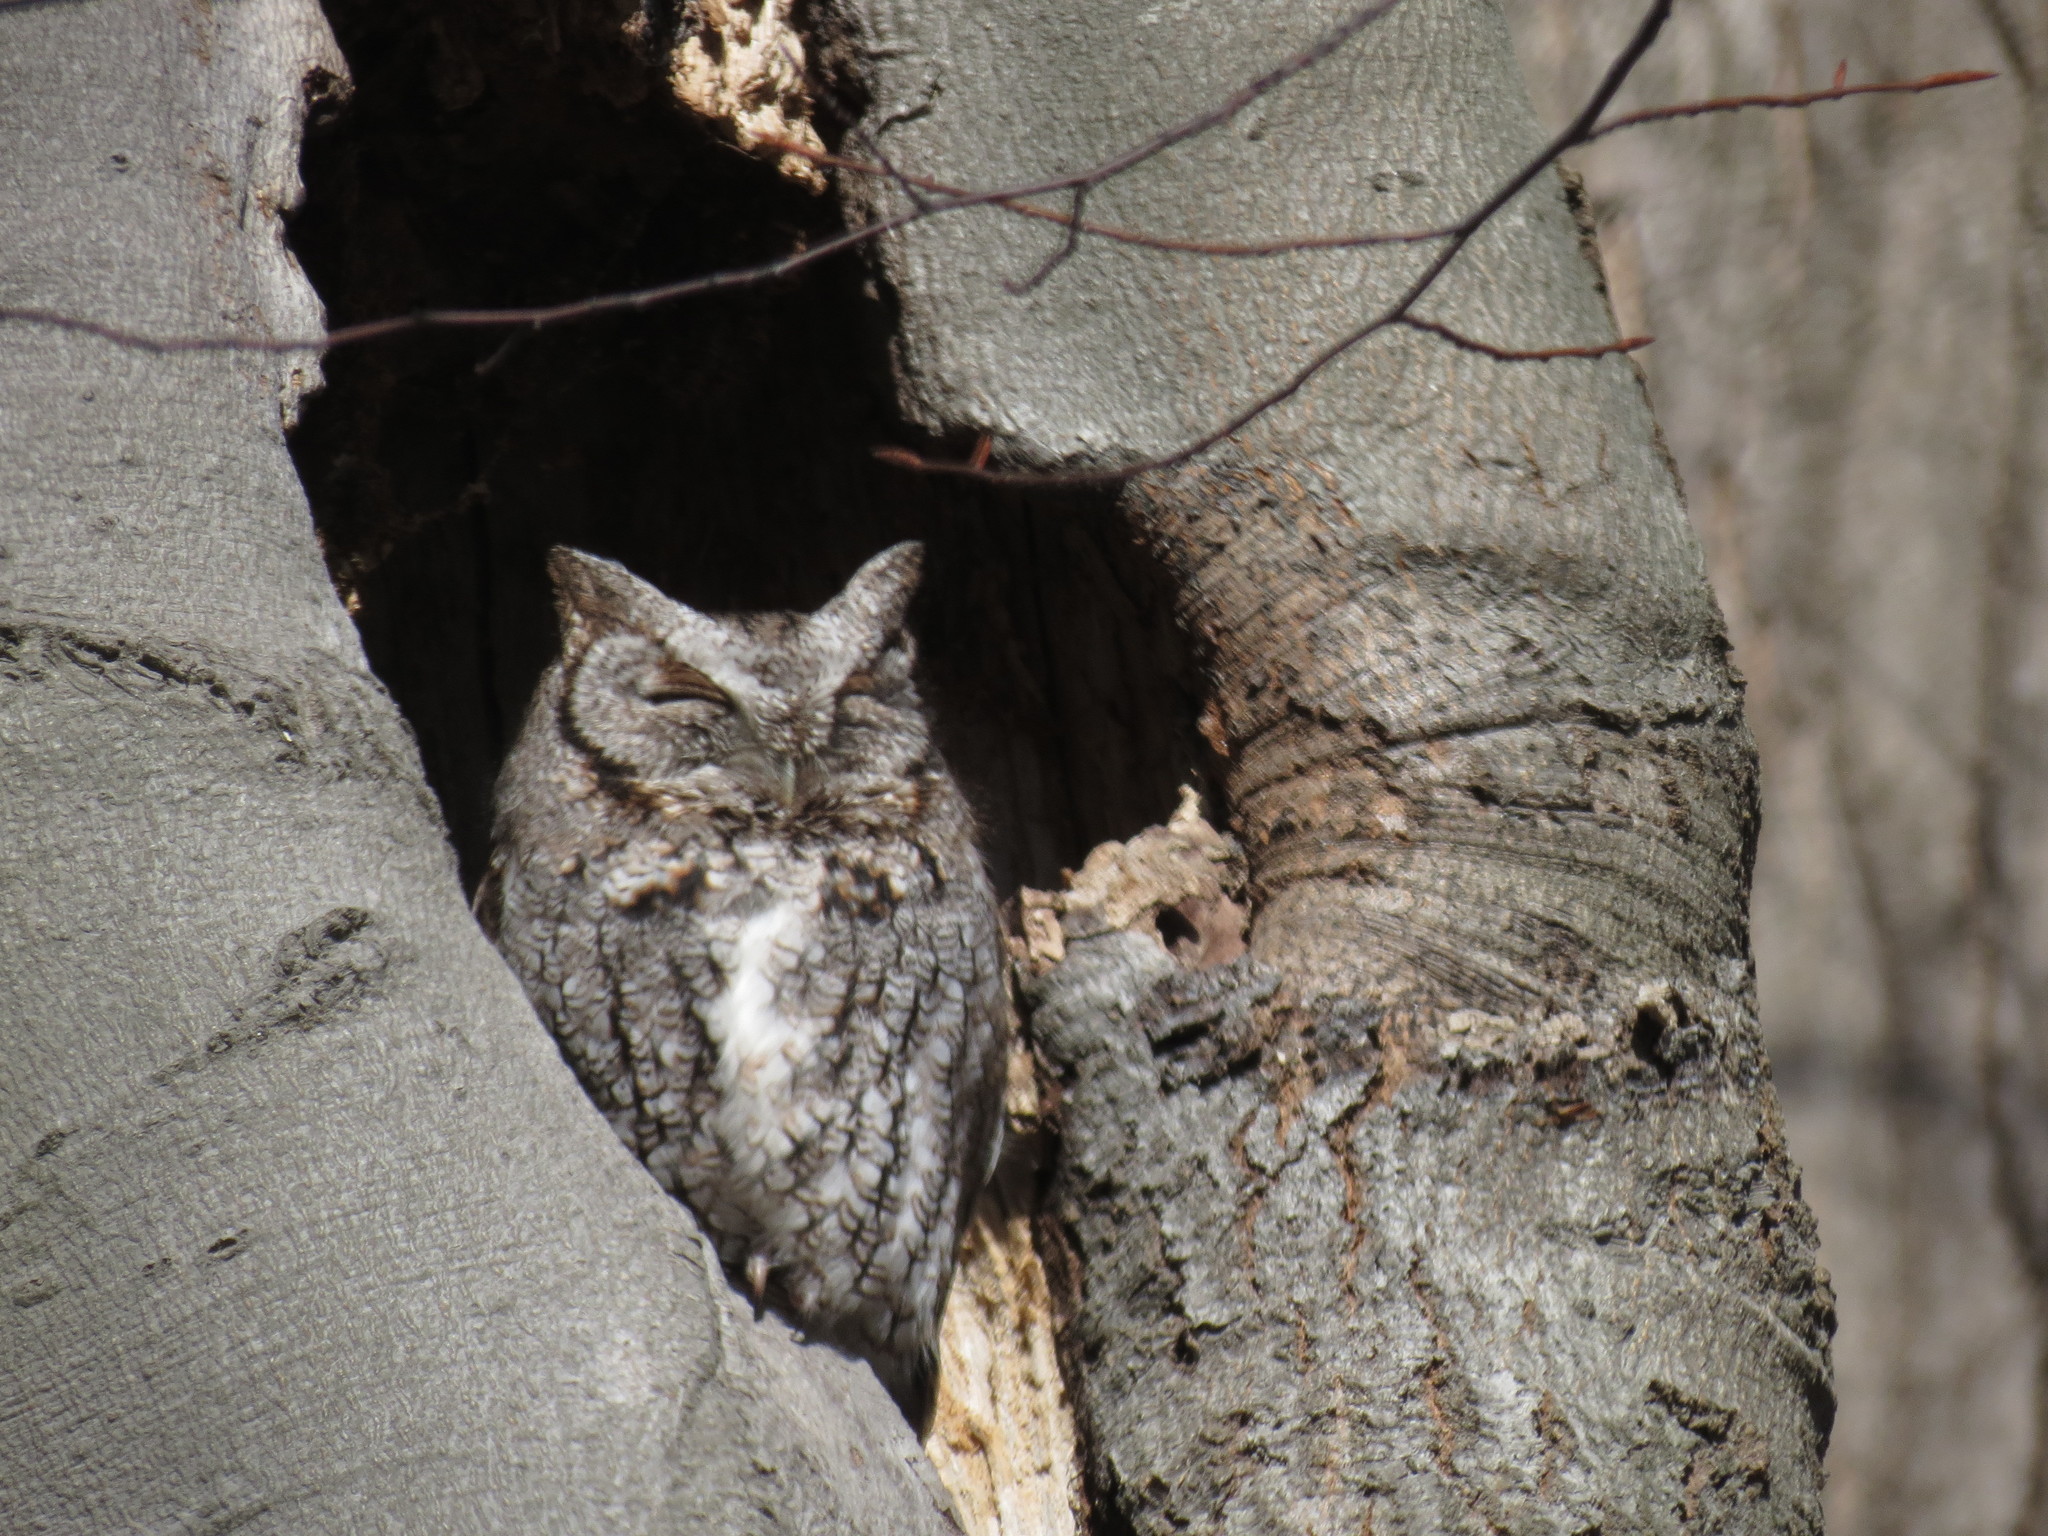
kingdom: Animalia
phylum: Chordata
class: Aves
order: Strigiformes
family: Strigidae
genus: Megascops
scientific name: Megascops asio
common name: Eastern screech-owl
